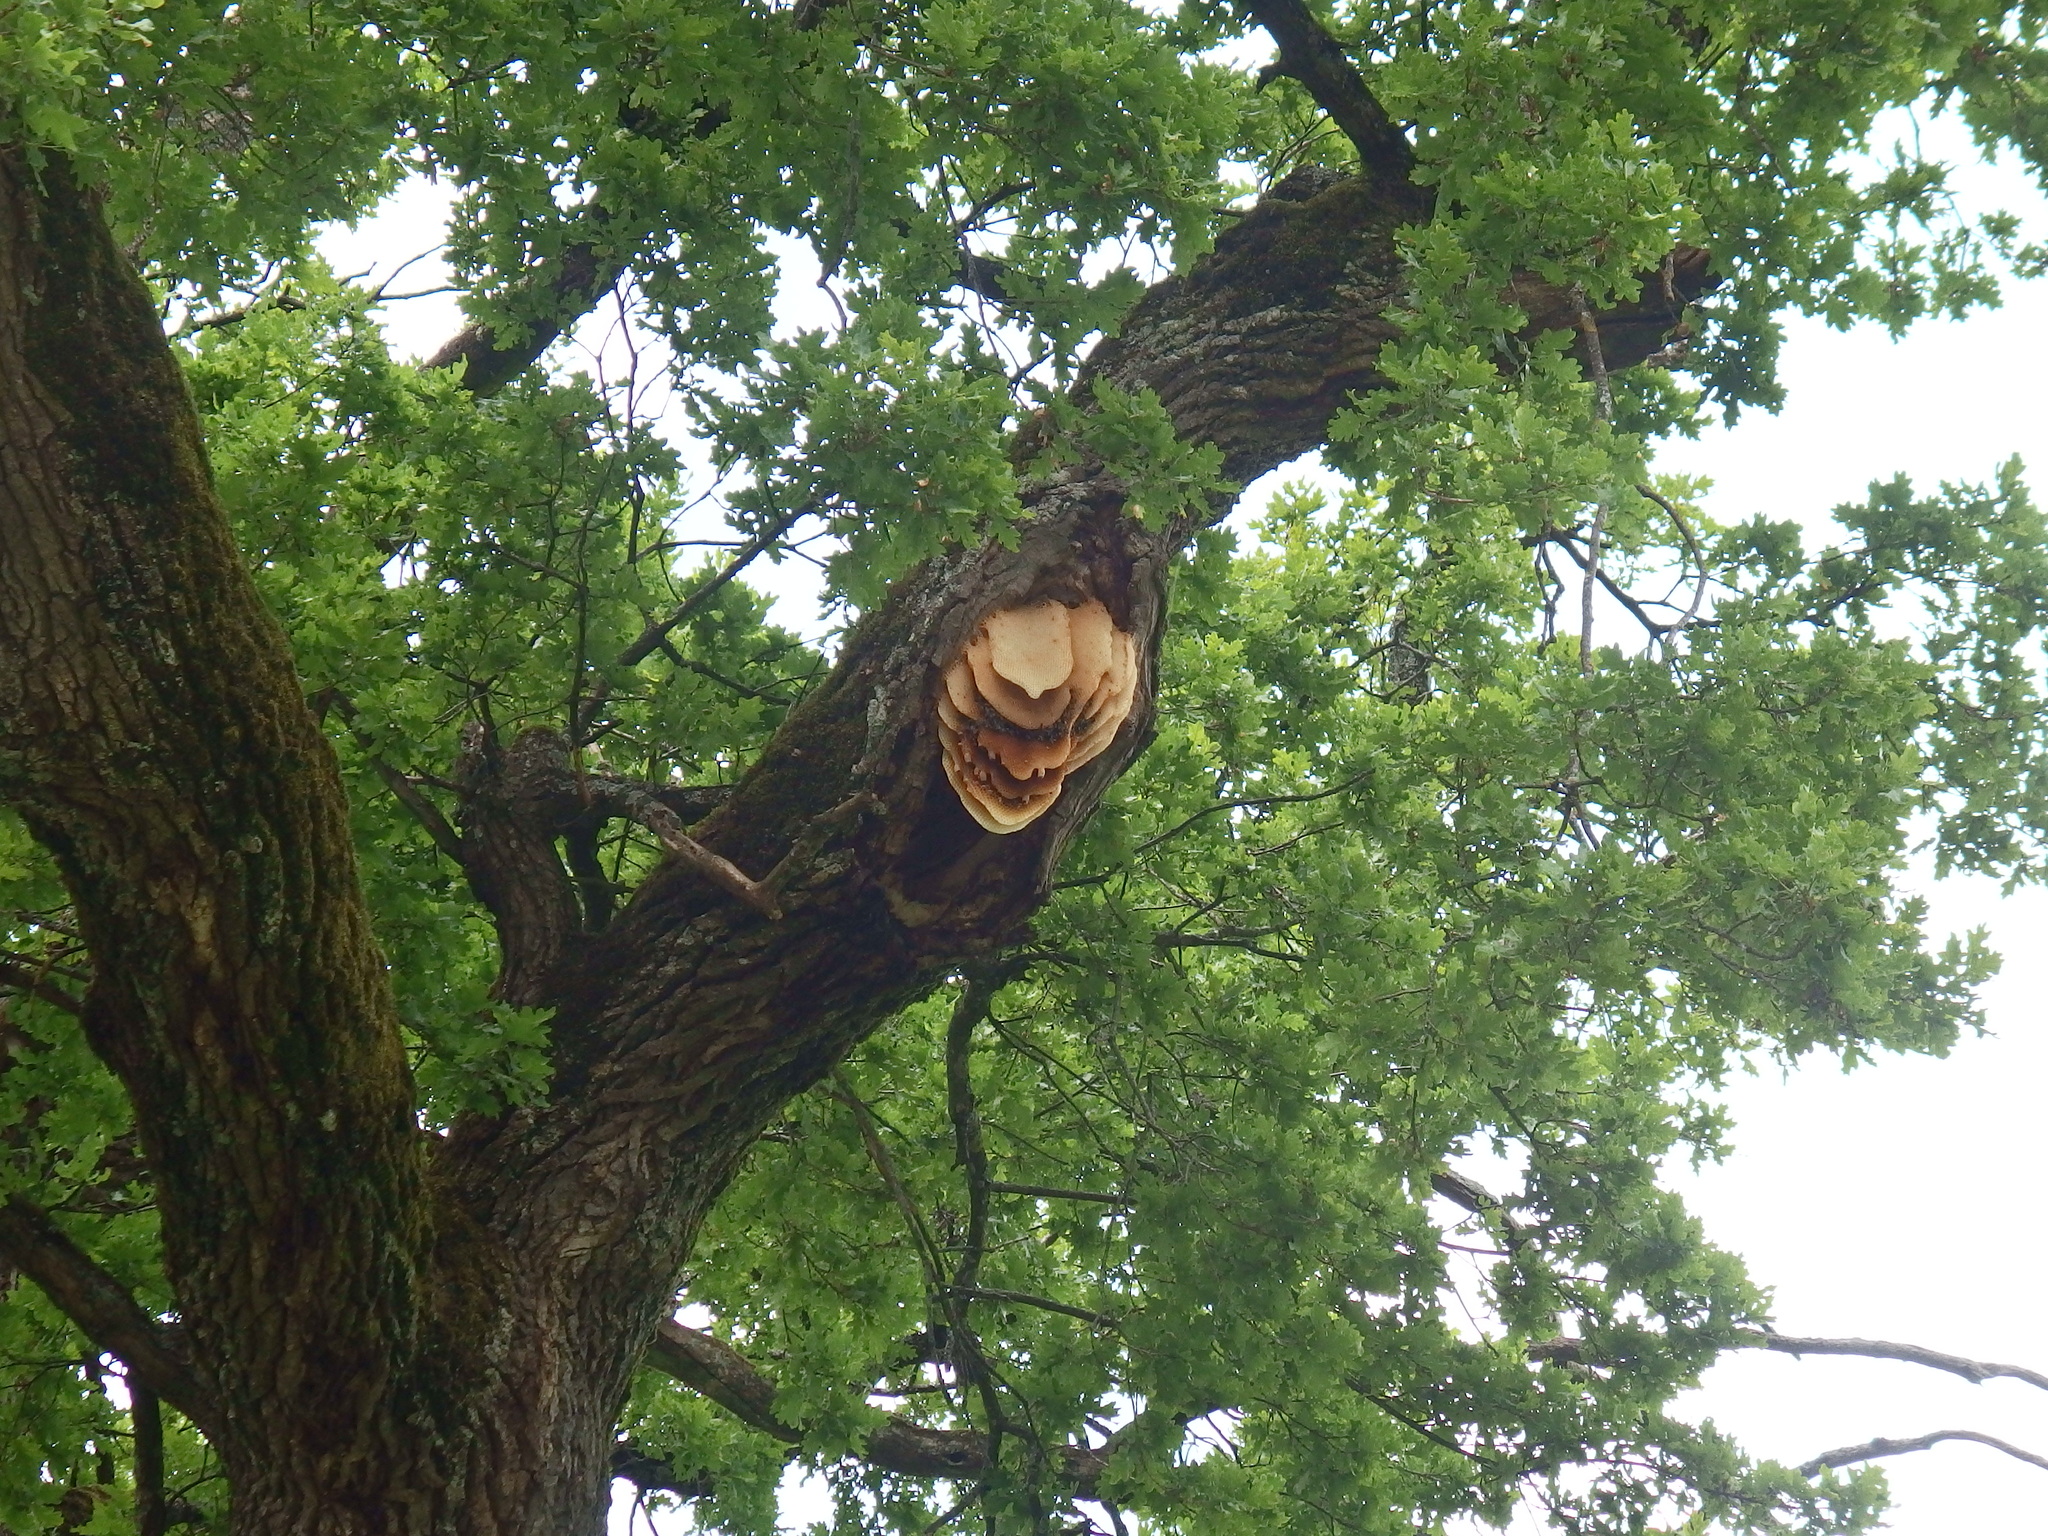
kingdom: Animalia
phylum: Arthropoda
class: Insecta
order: Hymenoptera
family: Apidae
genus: Apis
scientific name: Apis mellifera
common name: Honey bee
